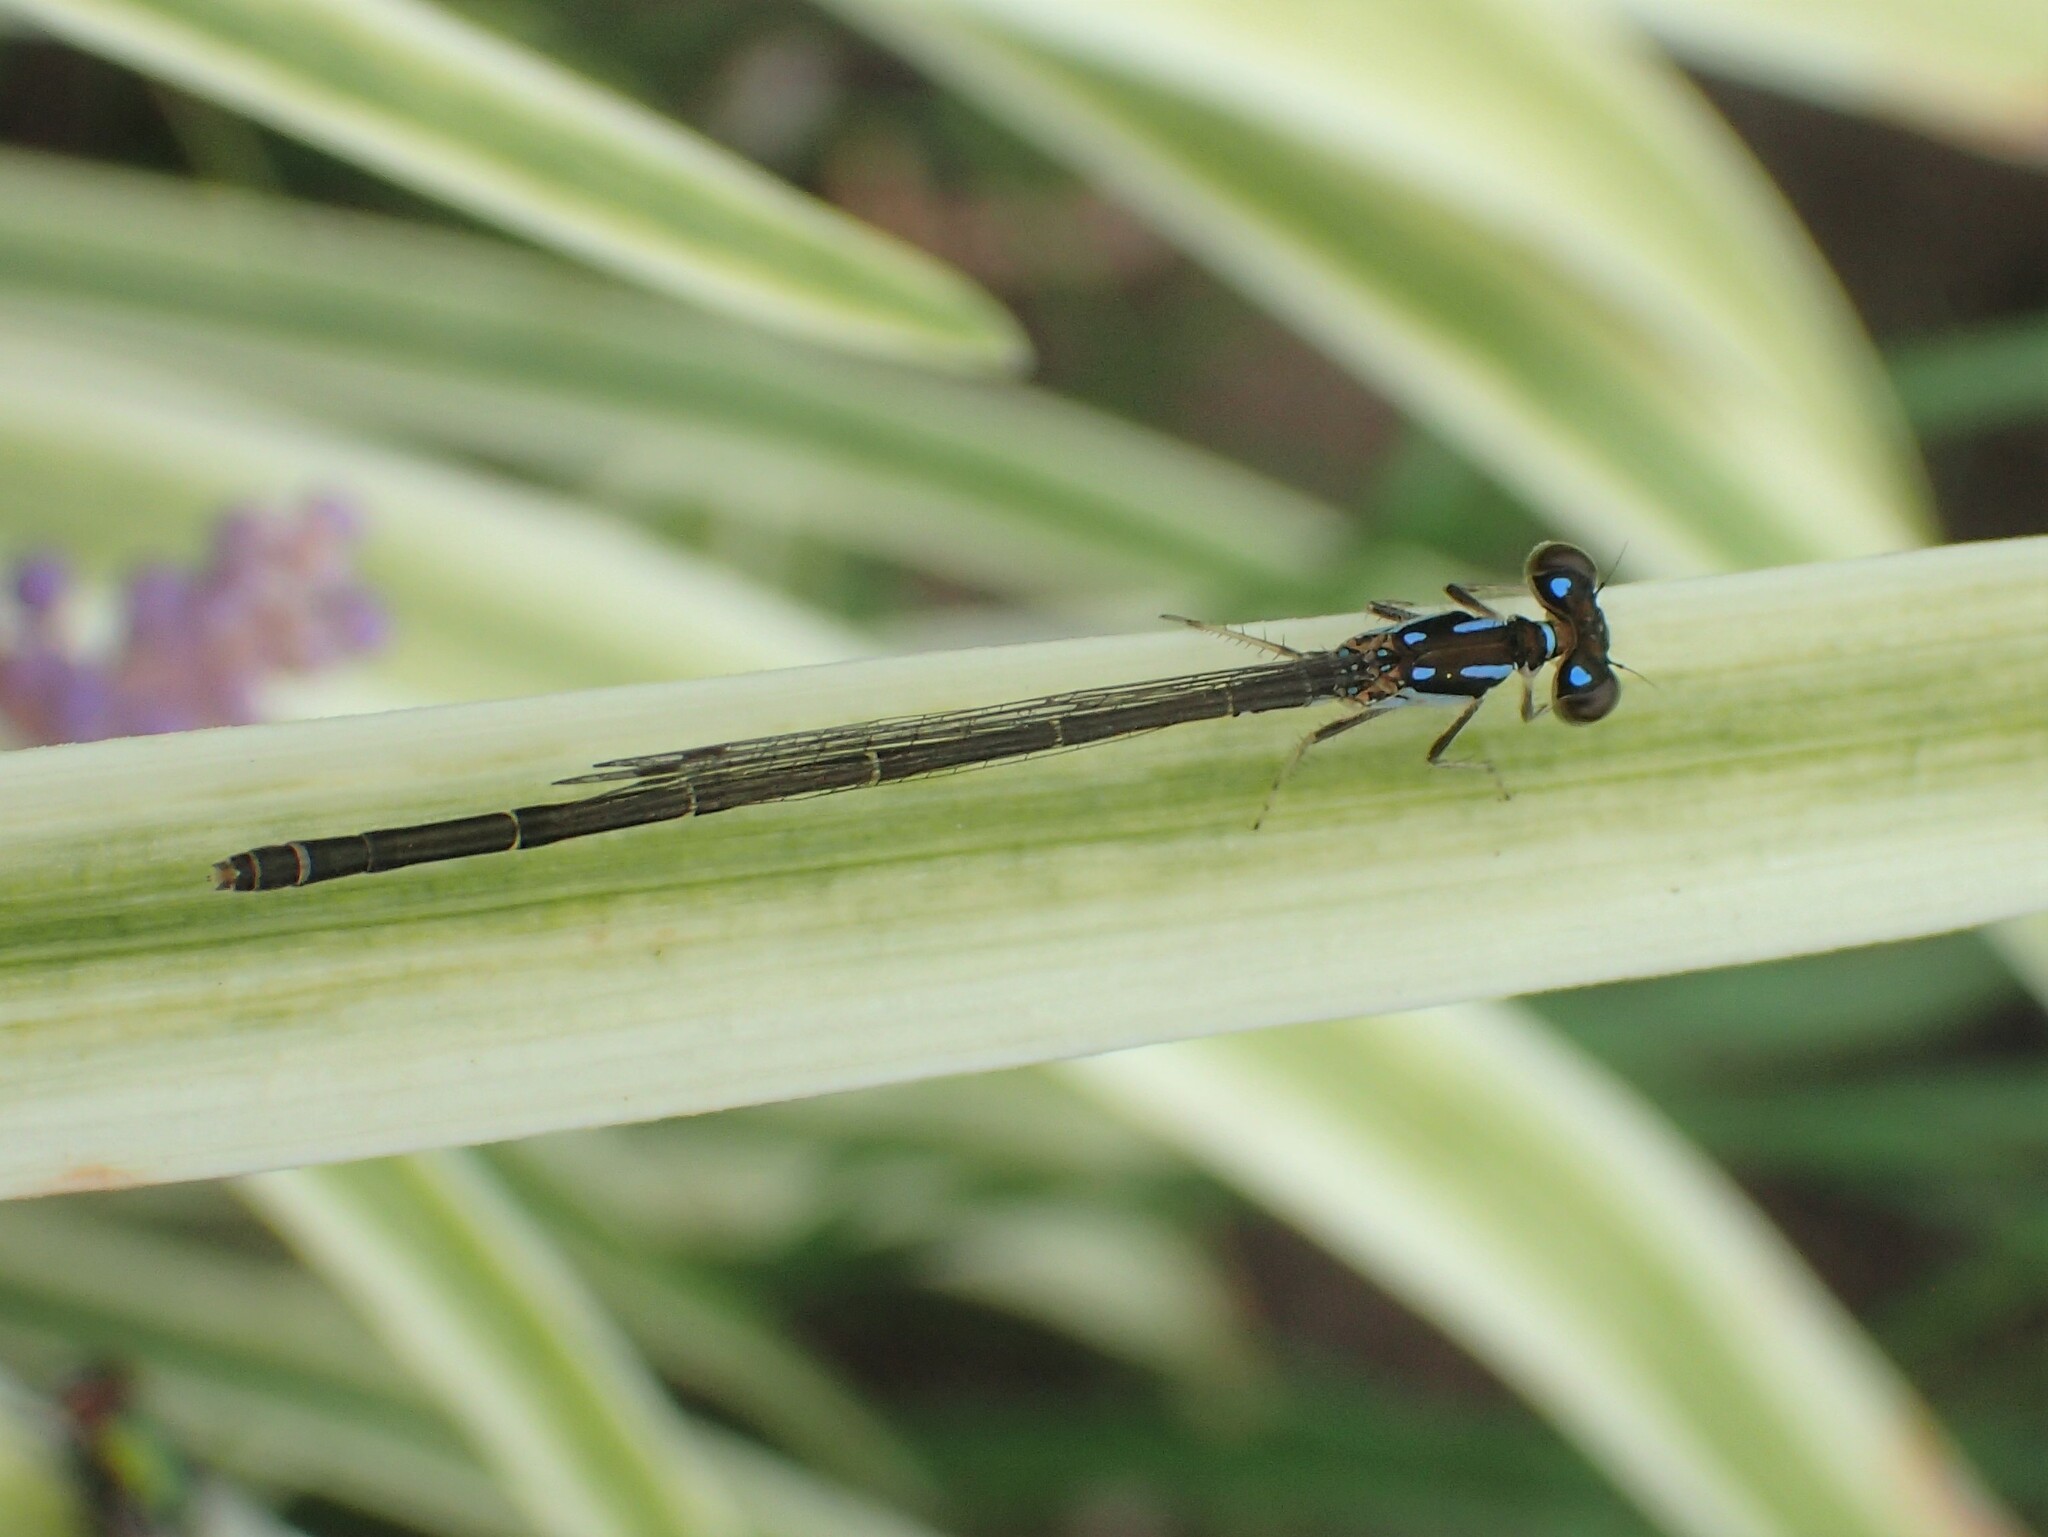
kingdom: Animalia
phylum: Arthropoda
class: Insecta
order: Odonata
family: Coenagrionidae
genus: Ischnura
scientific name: Ischnura posita
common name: Fragile forktail
